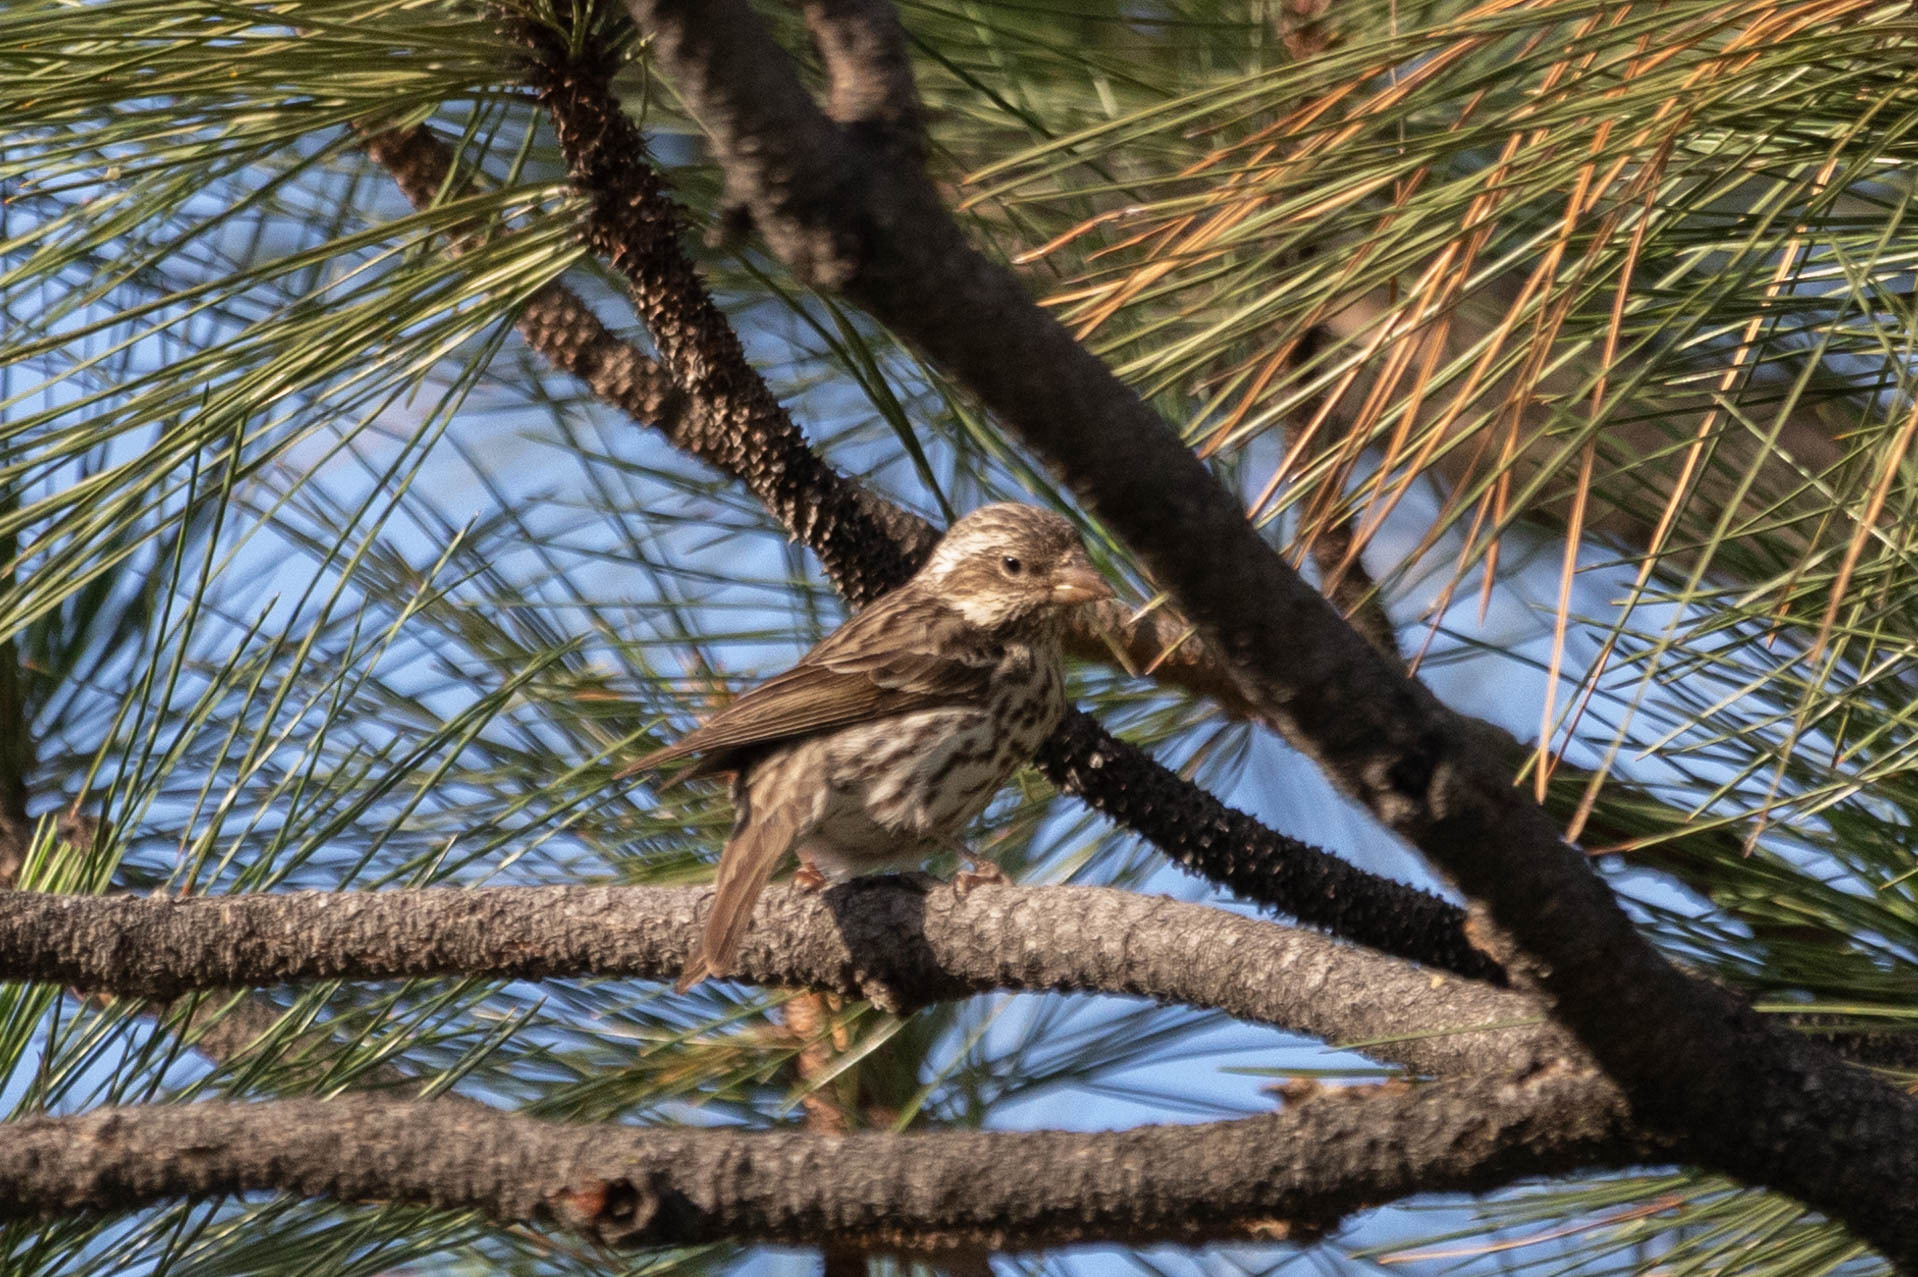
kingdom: Animalia
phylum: Chordata
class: Aves
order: Passeriformes
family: Fringillidae
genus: Haemorhous
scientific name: Haemorhous cassinii
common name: Cassin's finch
